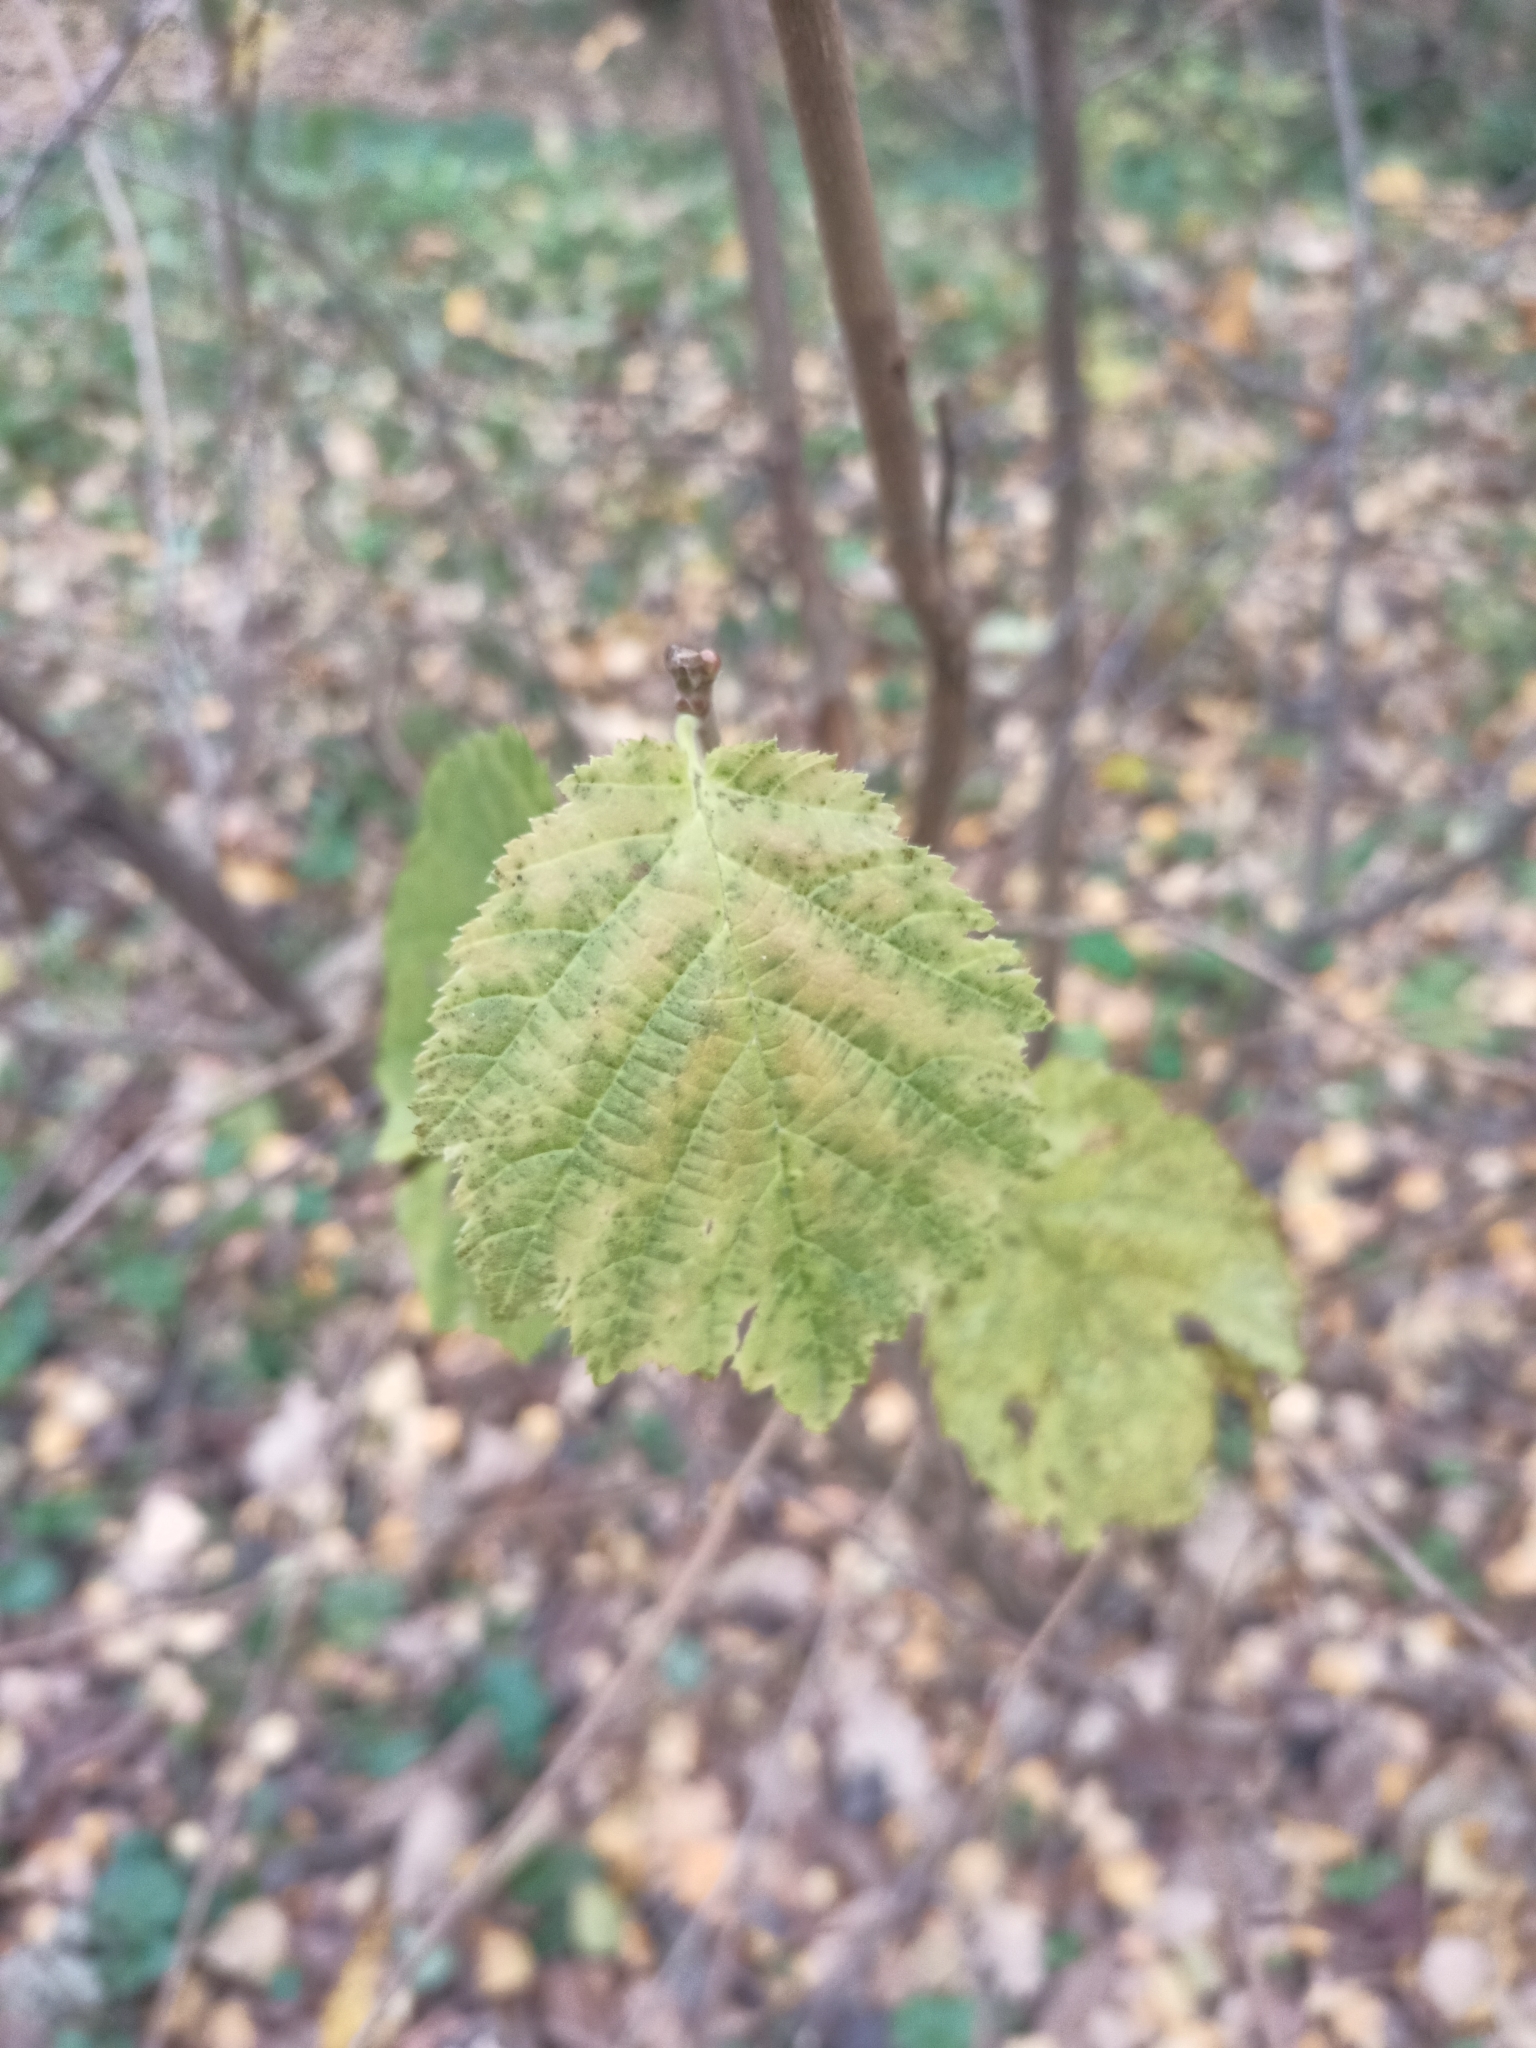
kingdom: Plantae
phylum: Tracheophyta
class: Magnoliopsida
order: Fagales
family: Betulaceae
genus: Corylus
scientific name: Corylus avellana
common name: European hazel
